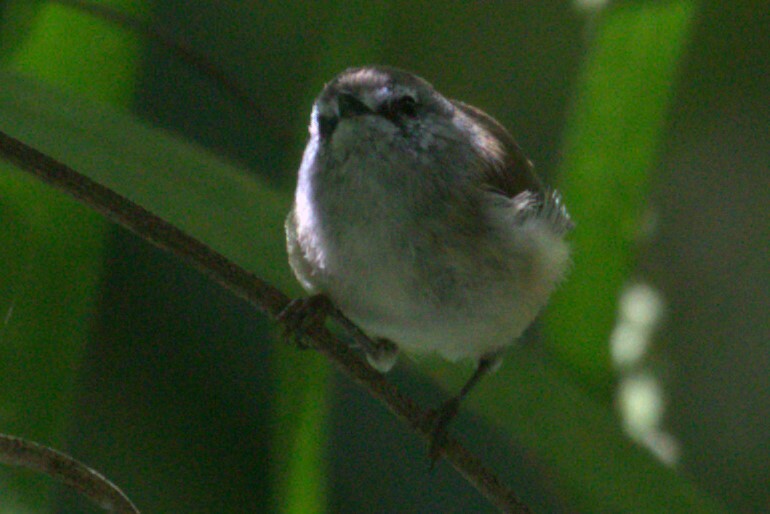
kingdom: Animalia
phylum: Chordata
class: Aves
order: Passeriformes
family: Acanthizidae
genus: Gerygone
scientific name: Gerygone mouki
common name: Brown gerygone
